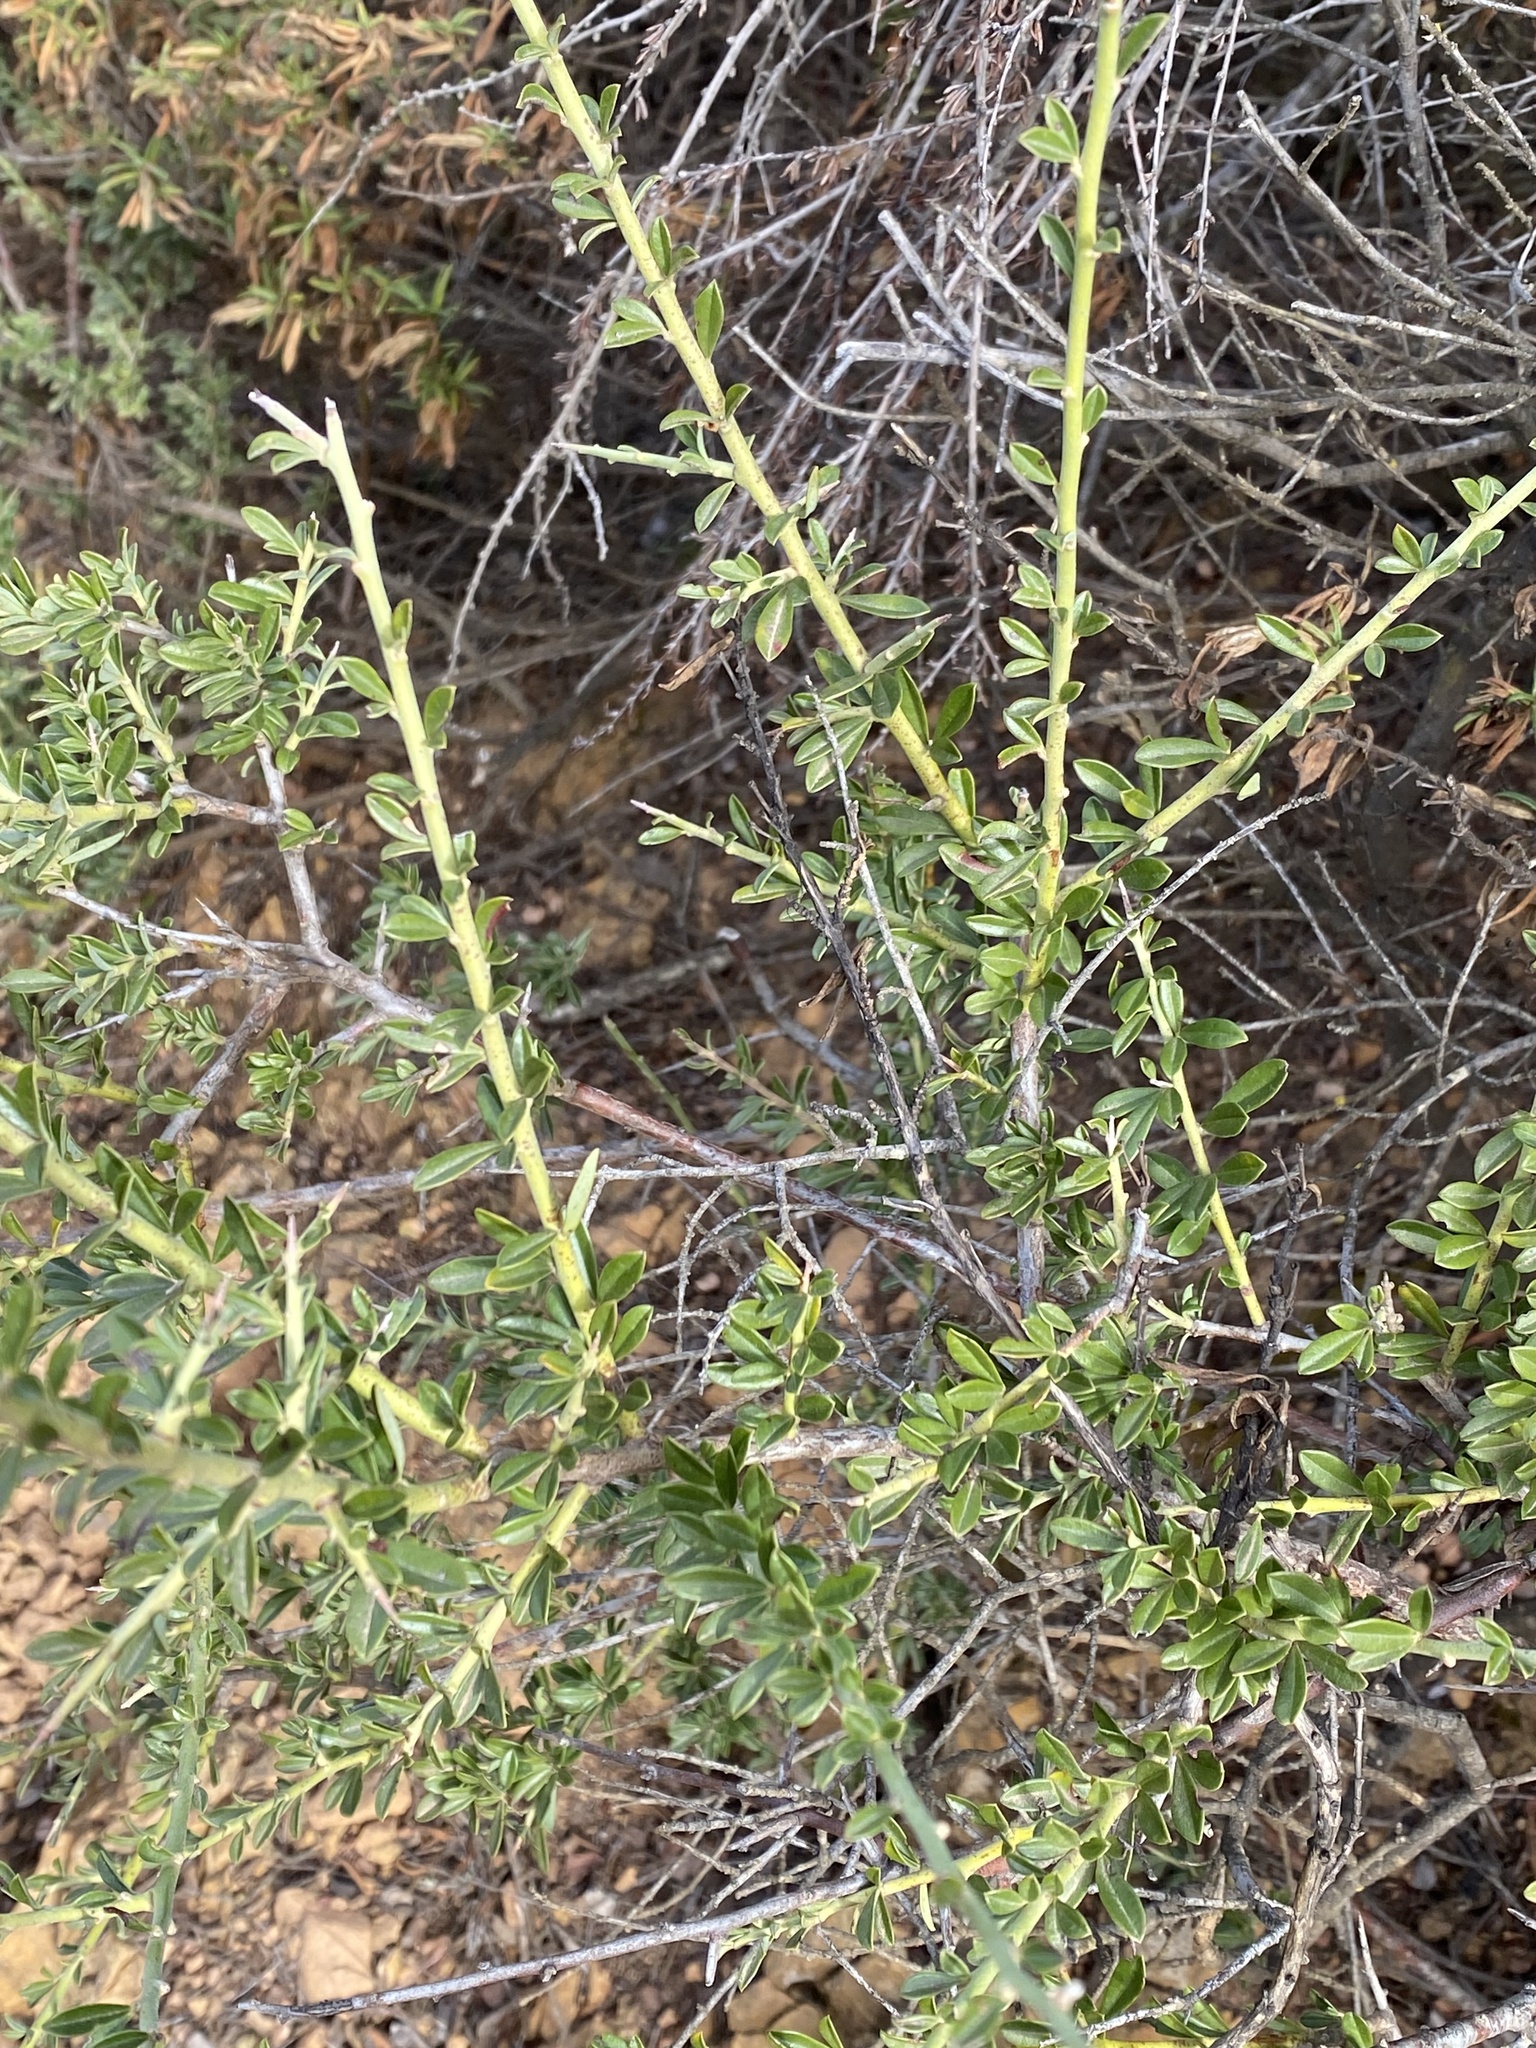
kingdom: Plantae
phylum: Tracheophyta
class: Magnoliopsida
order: Fabales
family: Fabaceae
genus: Pickeringia
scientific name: Pickeringia montana
